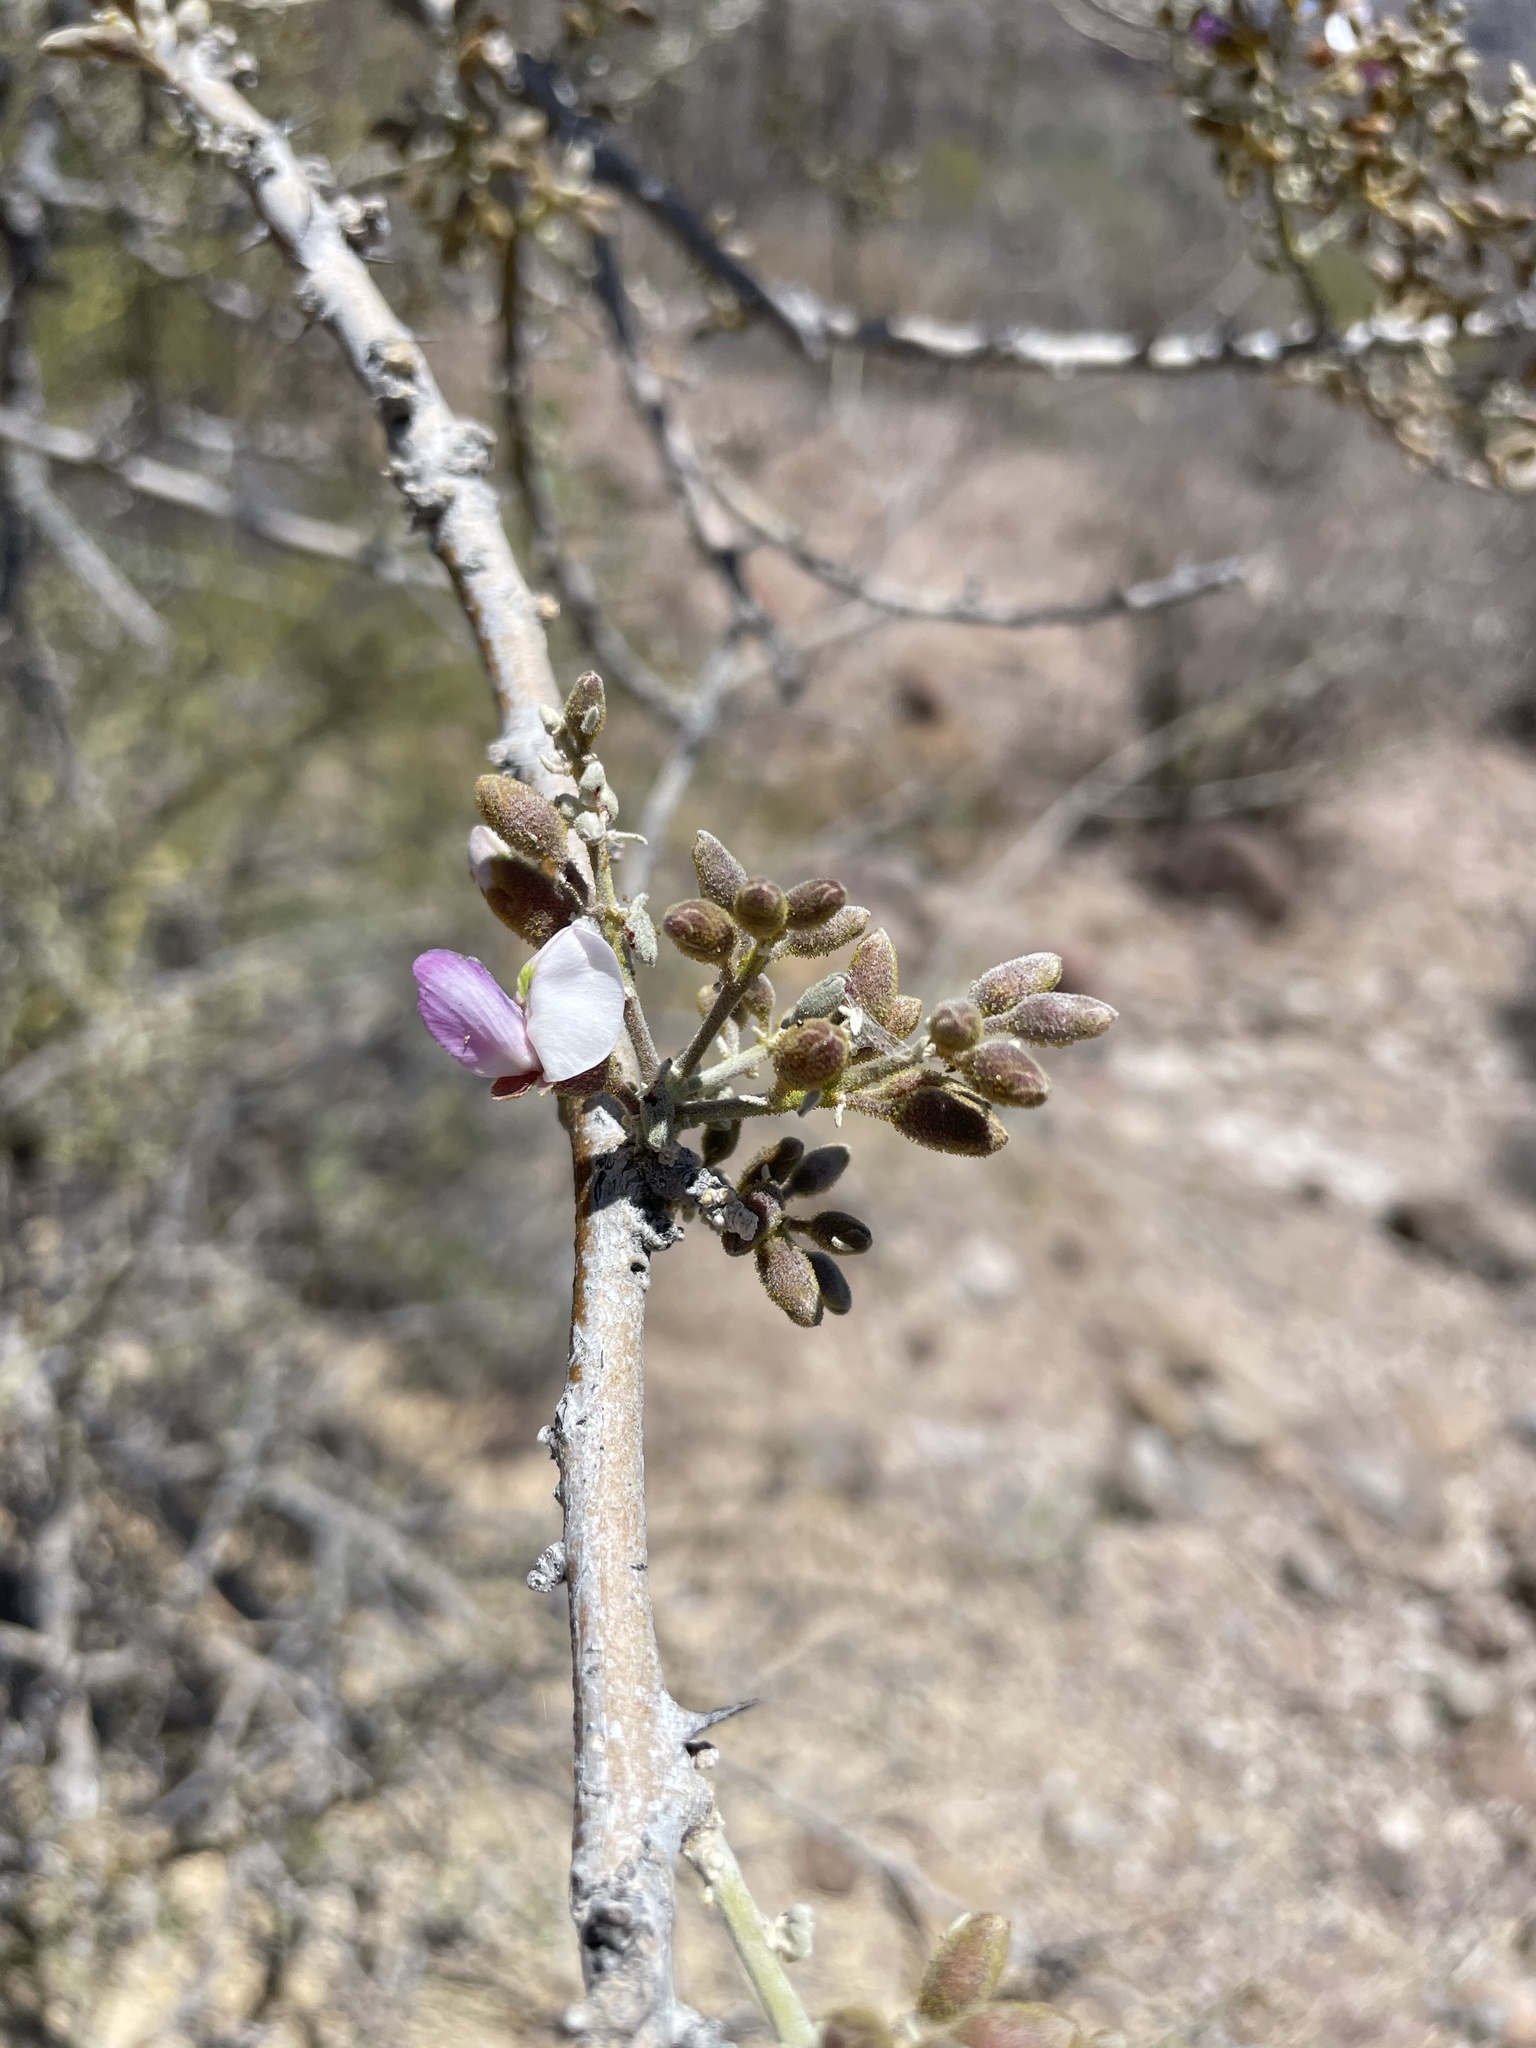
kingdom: Plantae
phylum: Tracheophyta
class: Magnoliopsida
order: Fabales
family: Fabaceae
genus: Olneya
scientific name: Olneya tesota
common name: Desert ironwood
